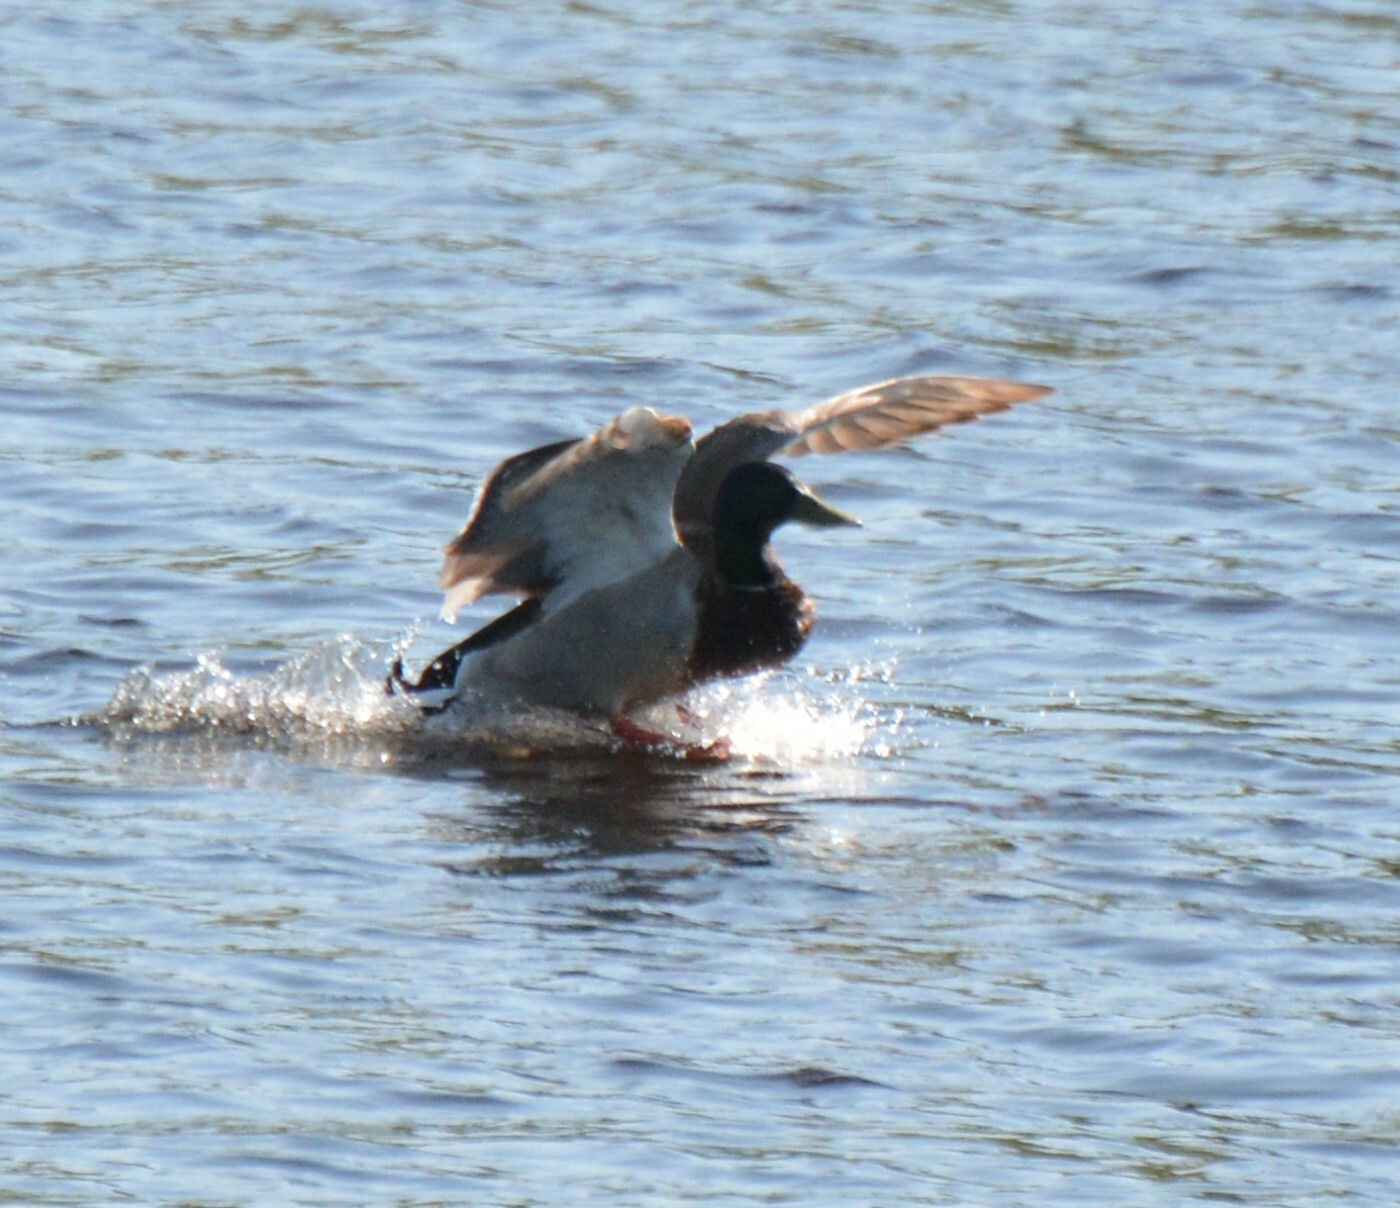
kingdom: Animalia
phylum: Chordata
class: Aves
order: Anseriformes
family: Anatidae
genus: Anas
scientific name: Anas platyrhynchos
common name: Mallard
